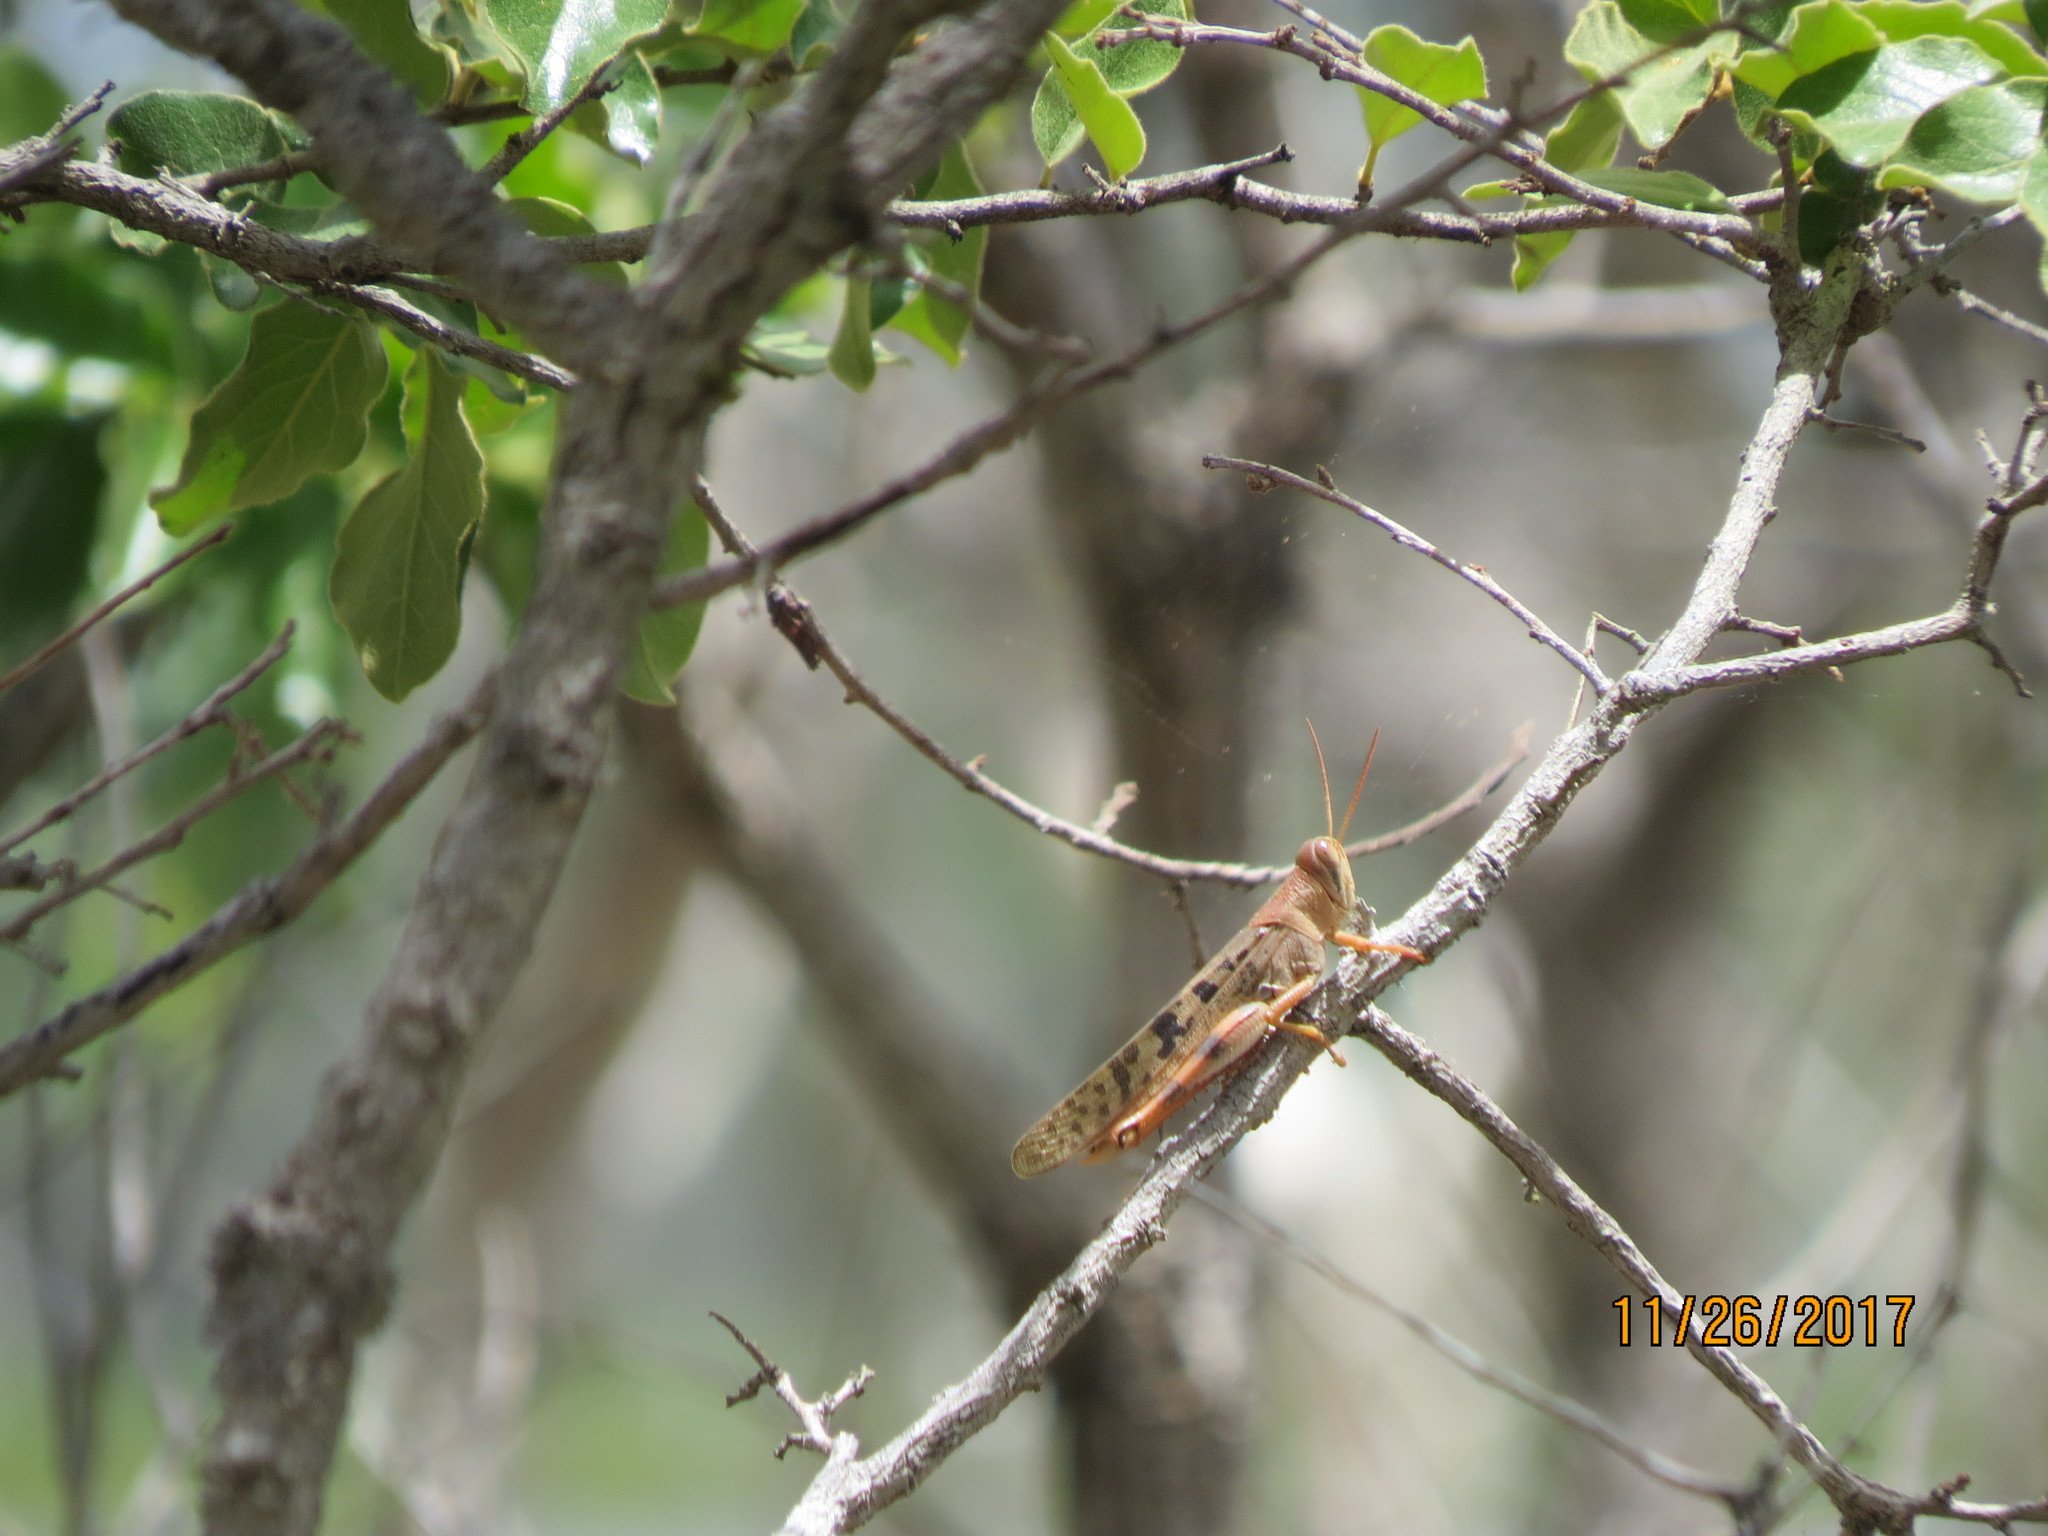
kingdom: Animalia
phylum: Arthropoda
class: Insecta
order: Orthoptera
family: Acrididae
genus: Austracris
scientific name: Austracris basalis
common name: Spotted spur-throated locust
